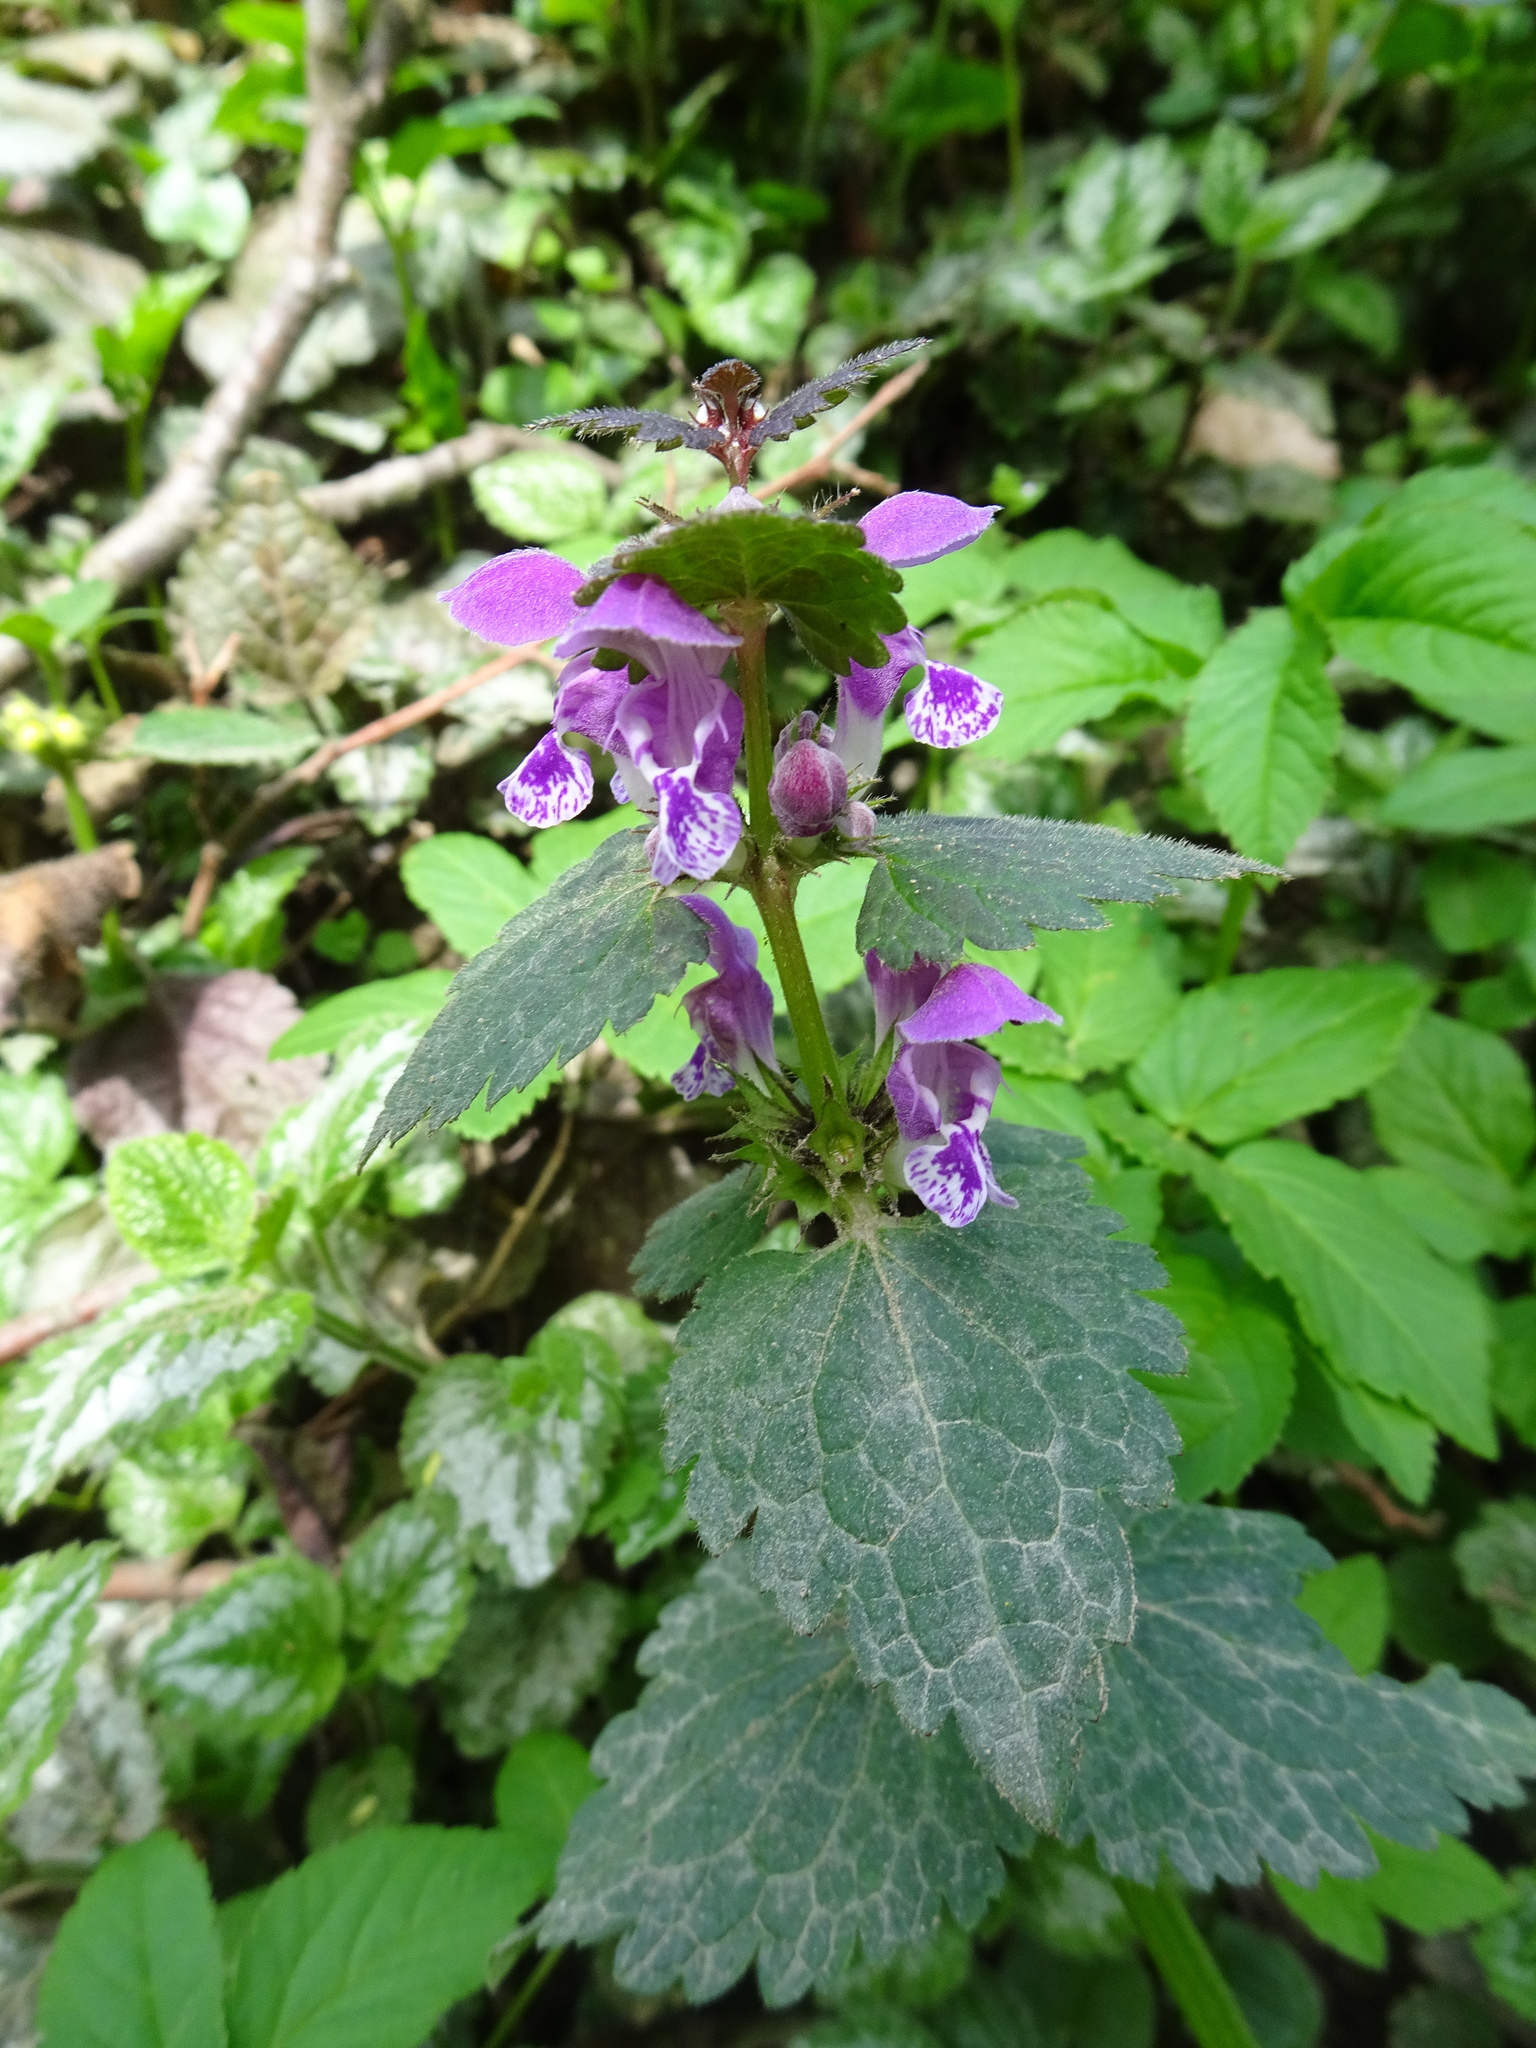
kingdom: Plantae
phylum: Tracheophyta
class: Magnoliopsida
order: Lamiales
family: Lamiaceae
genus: Lamium
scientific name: Lamium maculatum
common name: Spotted dead-nettle
